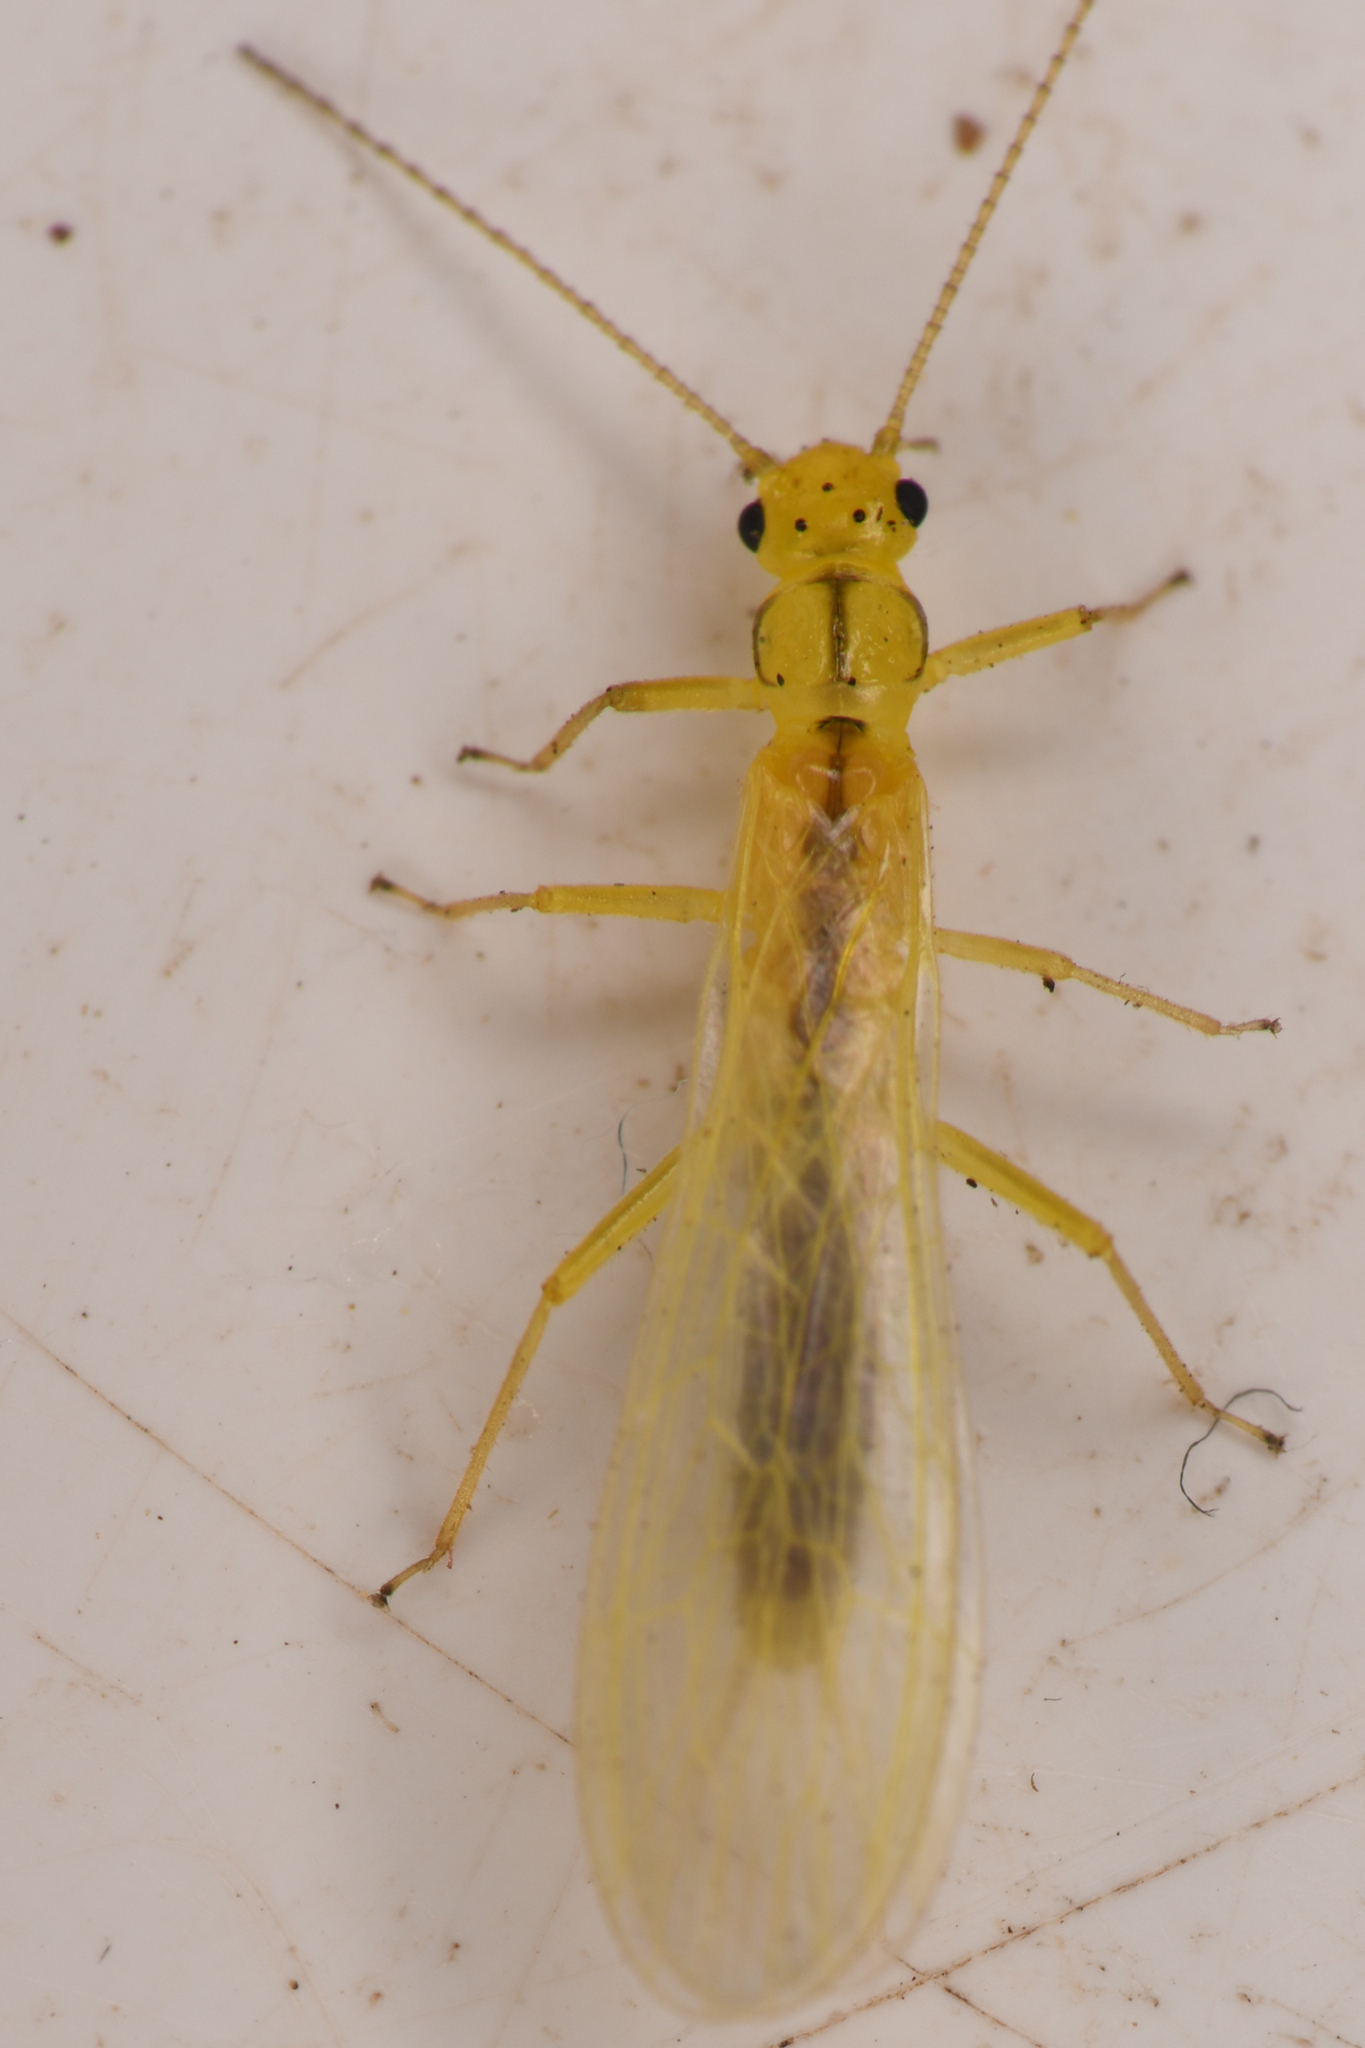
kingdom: Animalia
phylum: Arthropoda
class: Insecta
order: Plecoptera
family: Chloroperlidae
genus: Suwallia
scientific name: Suwallia dubia
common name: Pale sallfly
